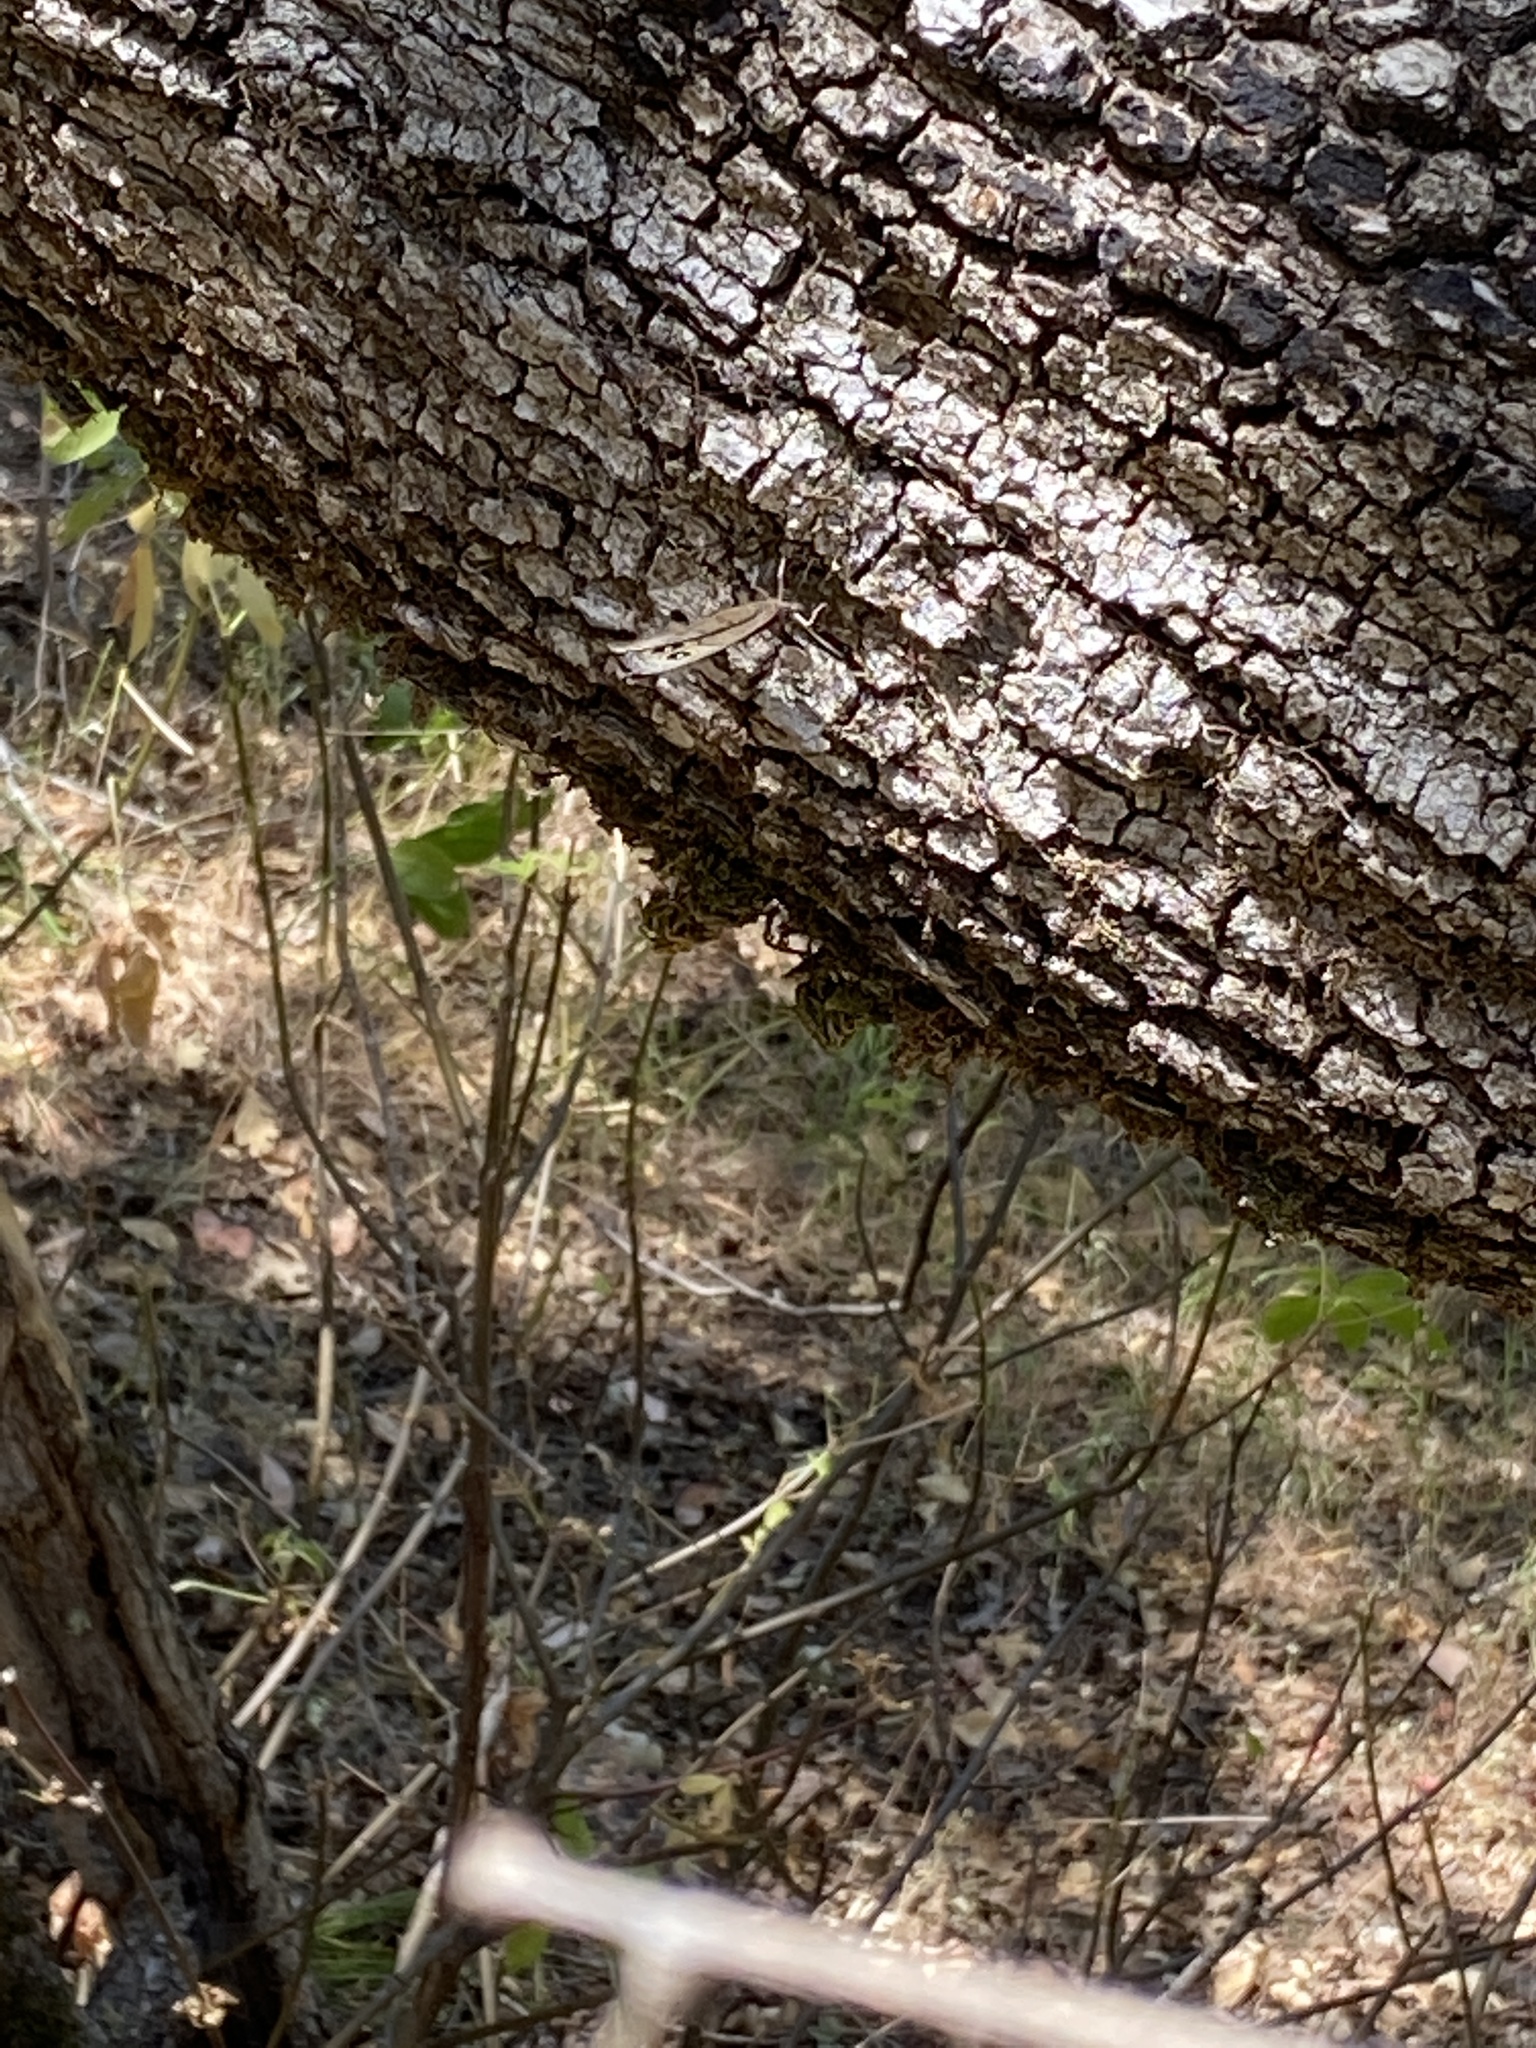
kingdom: Animalia
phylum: Arthropoda
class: Insecta
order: Lepidoptera
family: Nymphalidae
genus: Cercyonis
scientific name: Cercyonis pegala
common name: Common wood-nymph
